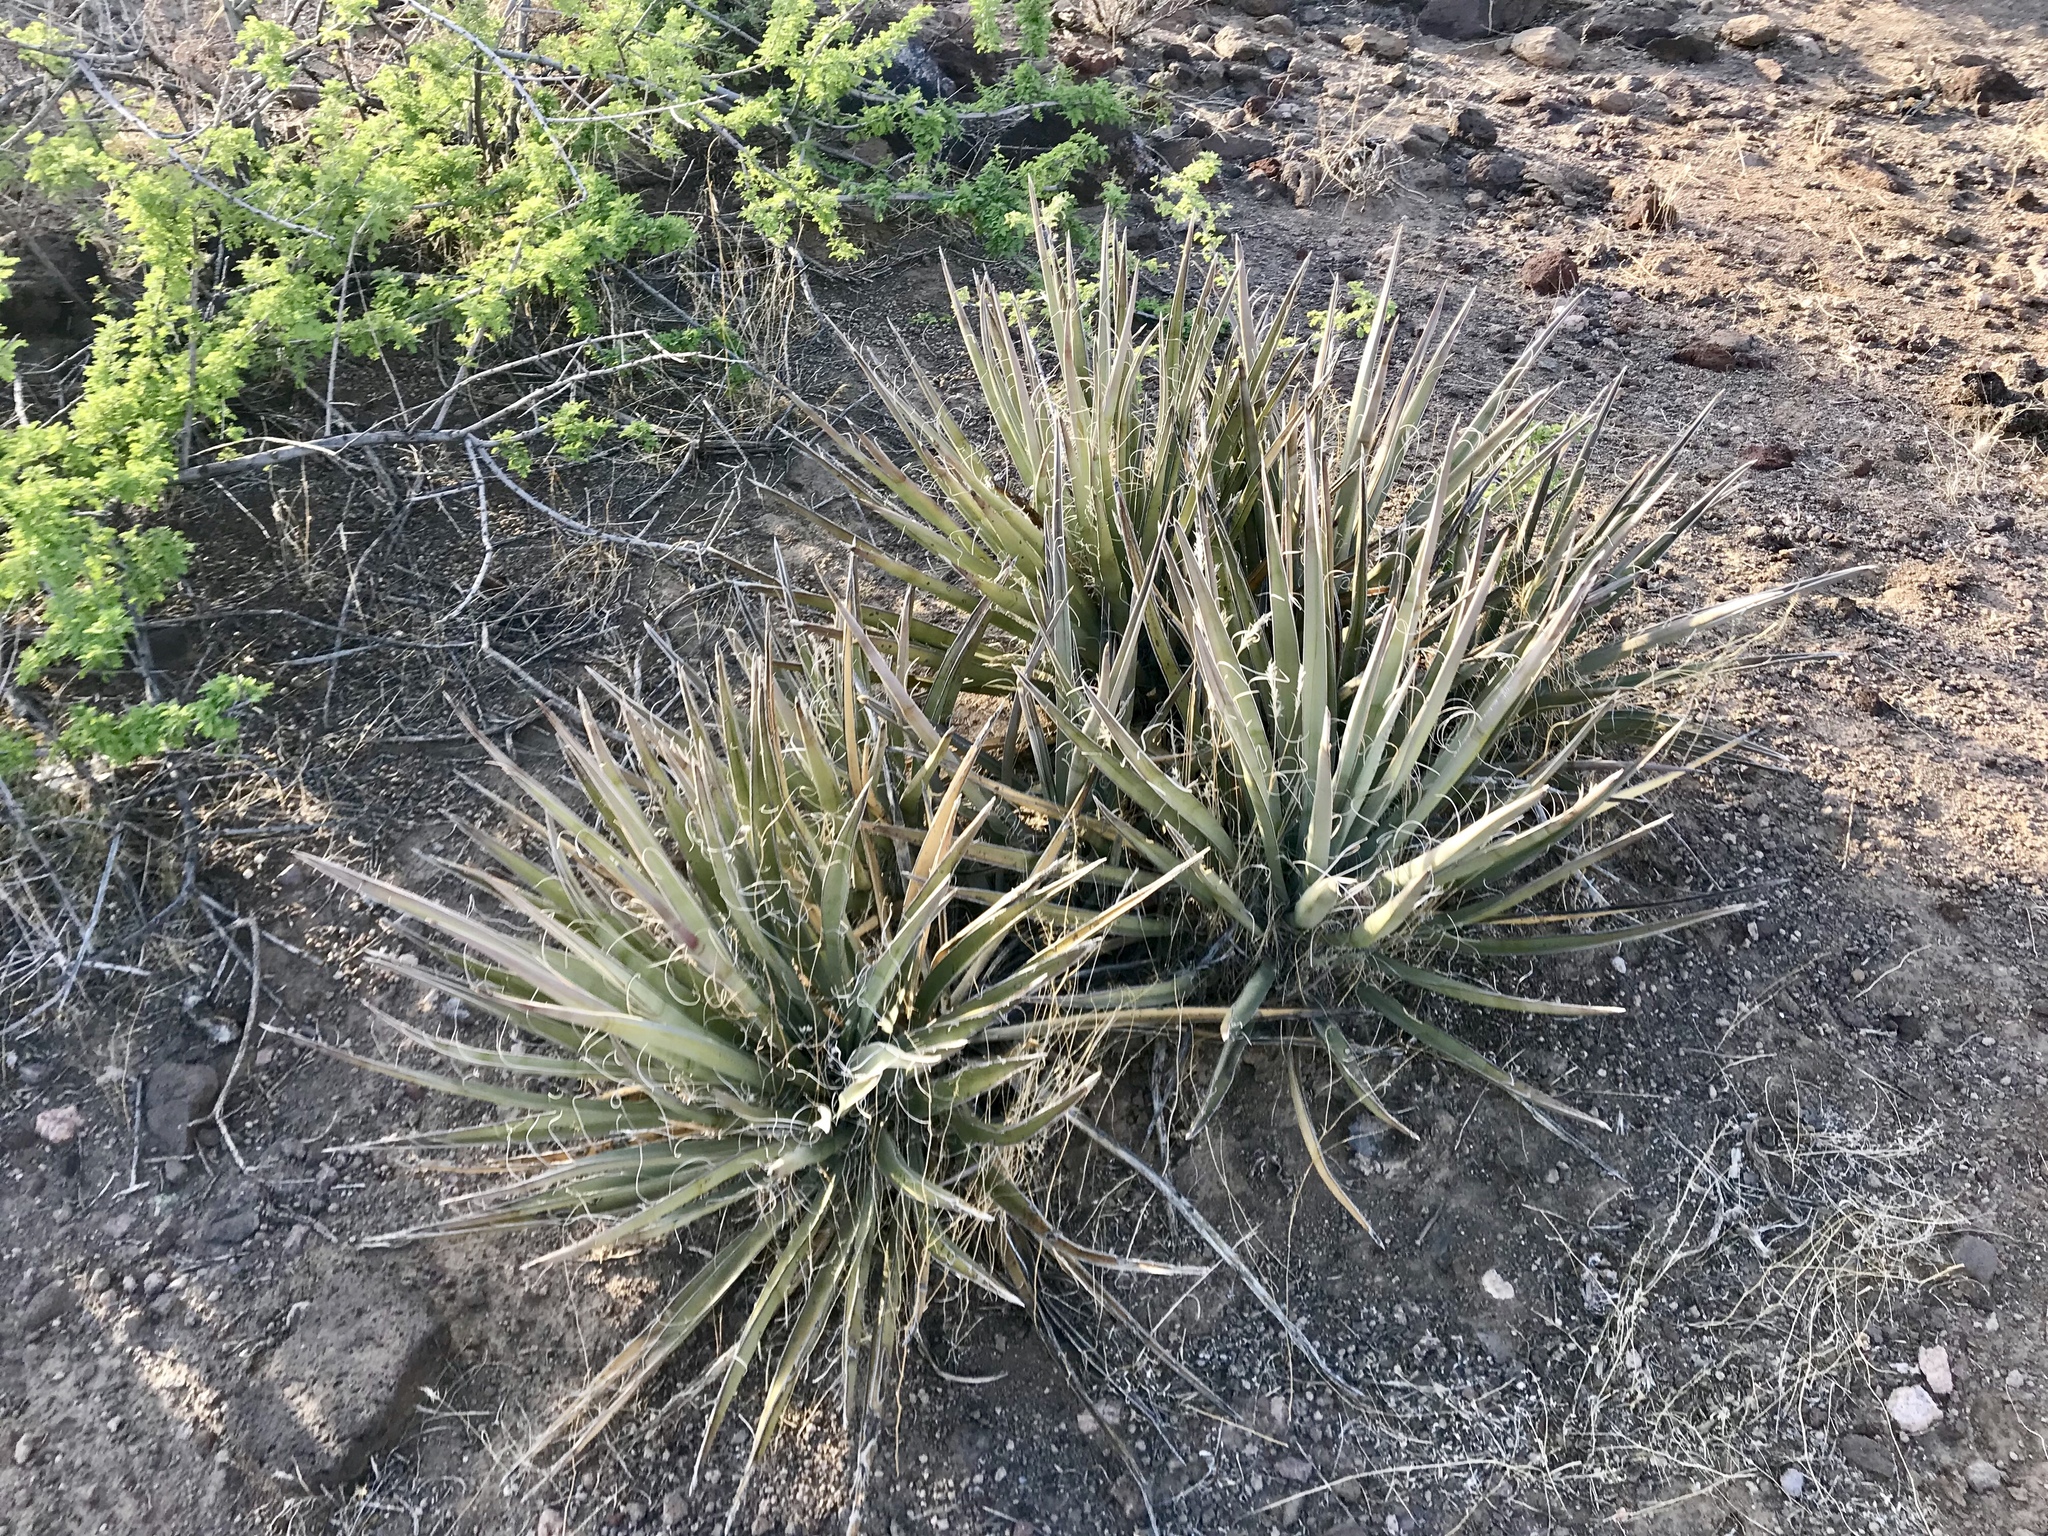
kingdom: Plantae
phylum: Tracheophyta
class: Liliopsida
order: Asparagales
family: Asparagaceae
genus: Yucca
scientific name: Yucca baccata
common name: Banana yucca
